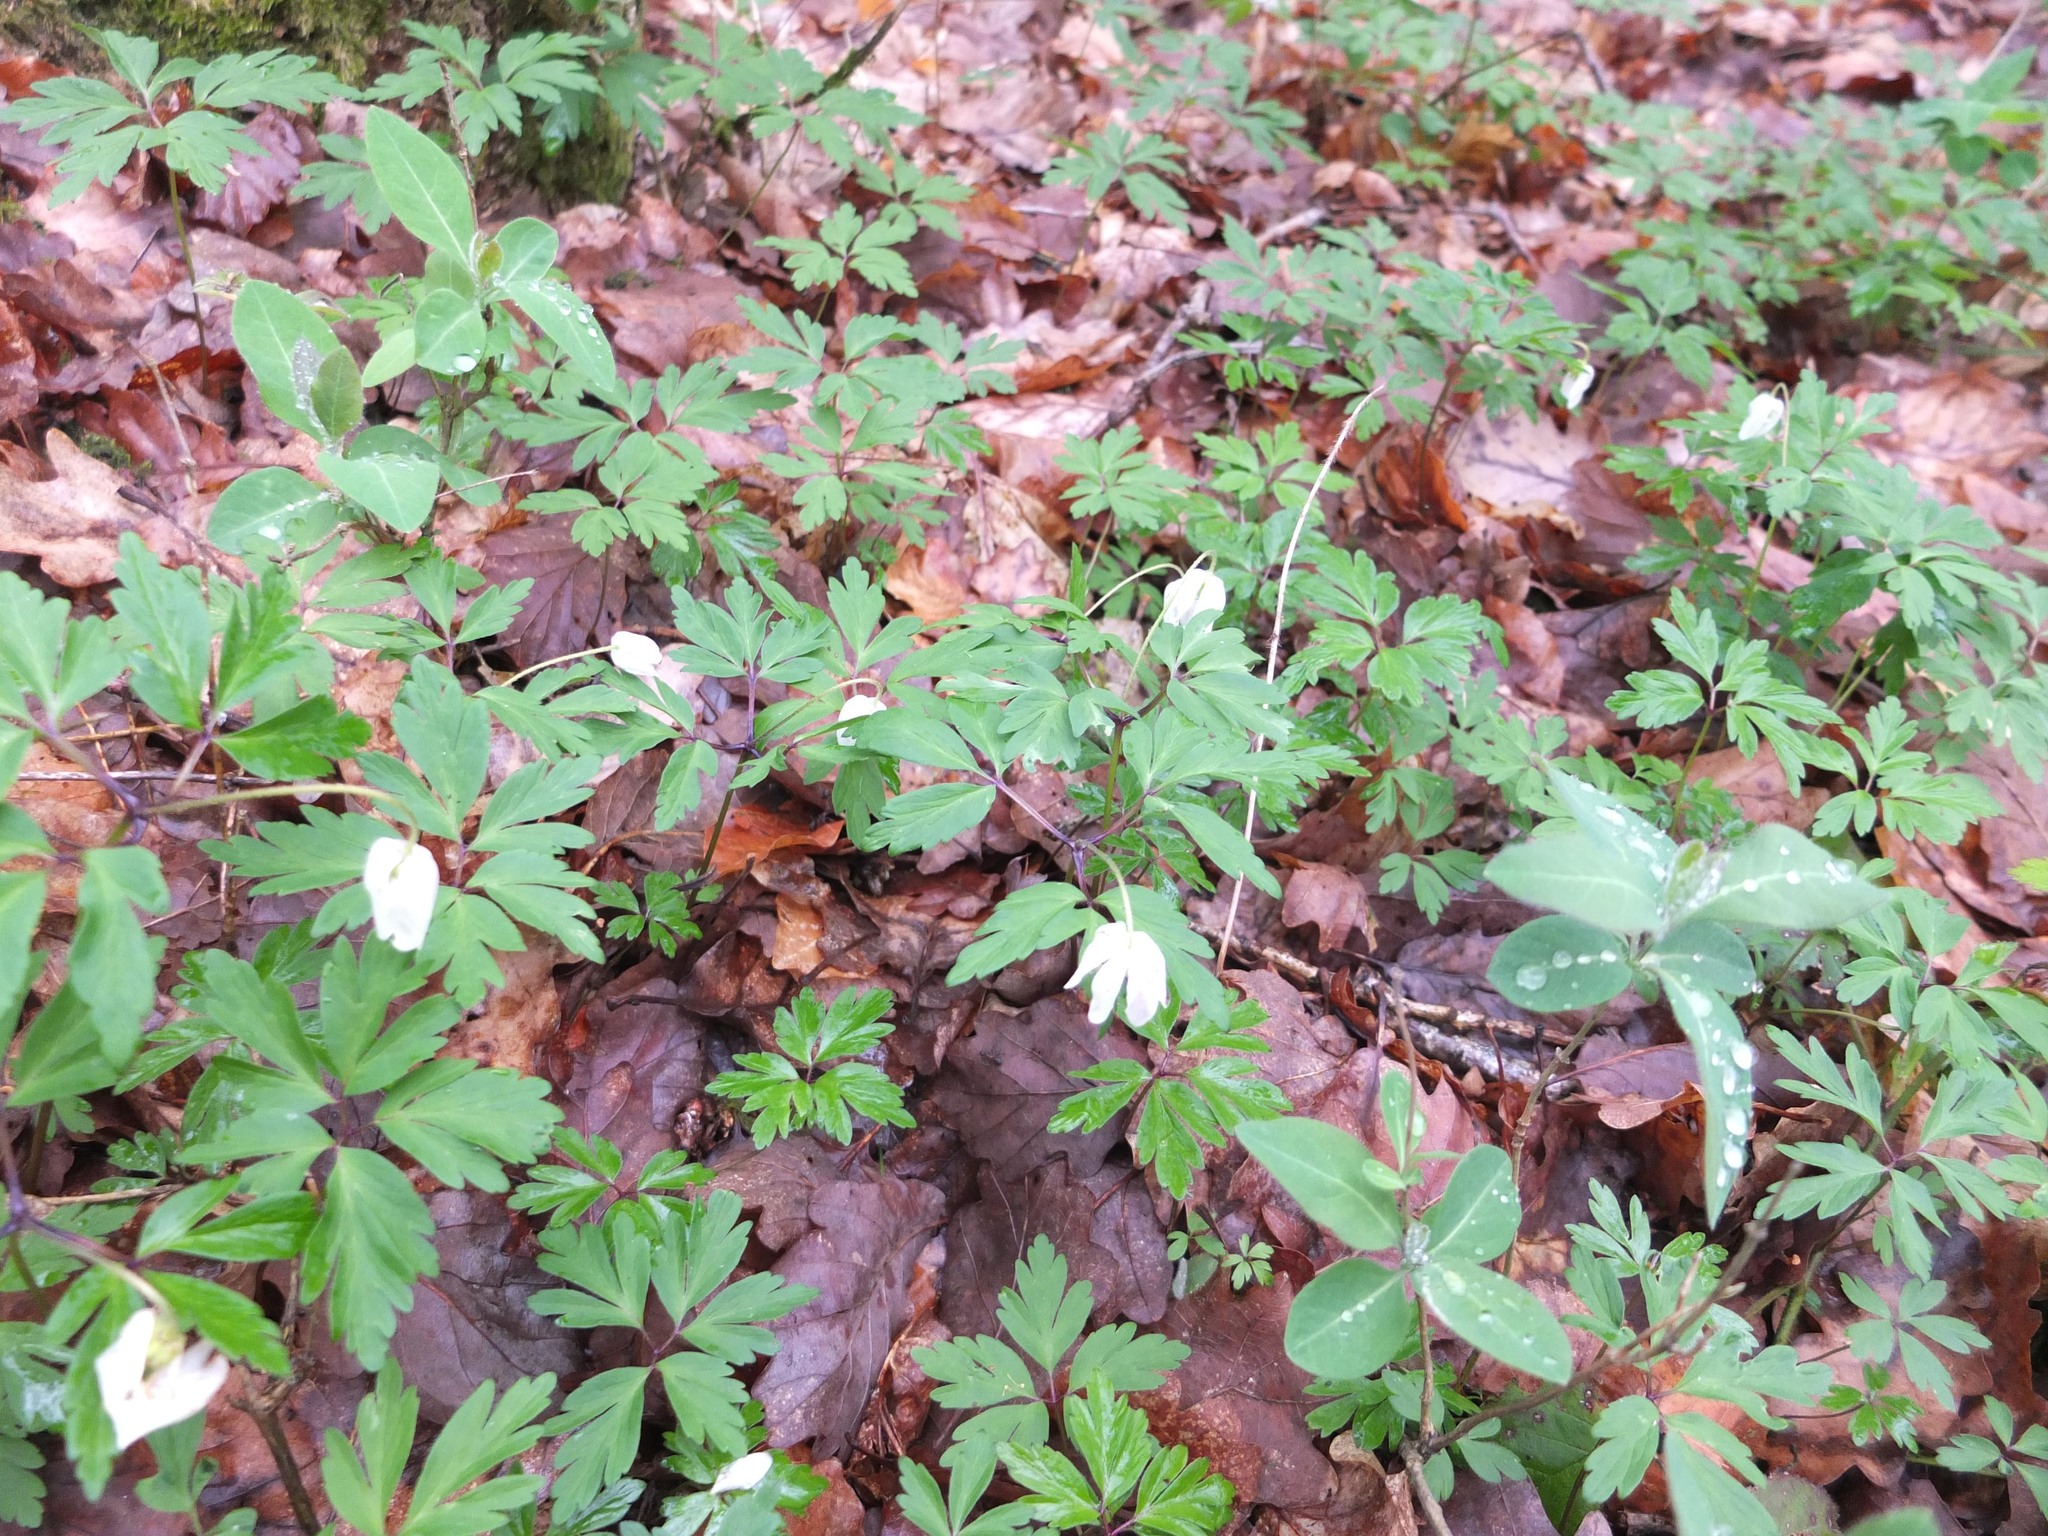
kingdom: Plantae
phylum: Tracheophyta
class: Magnoliopsida
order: Ranunculales
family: Ranunculaceae
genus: Anemone
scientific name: Anemone nemorosa
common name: Wood anemone
